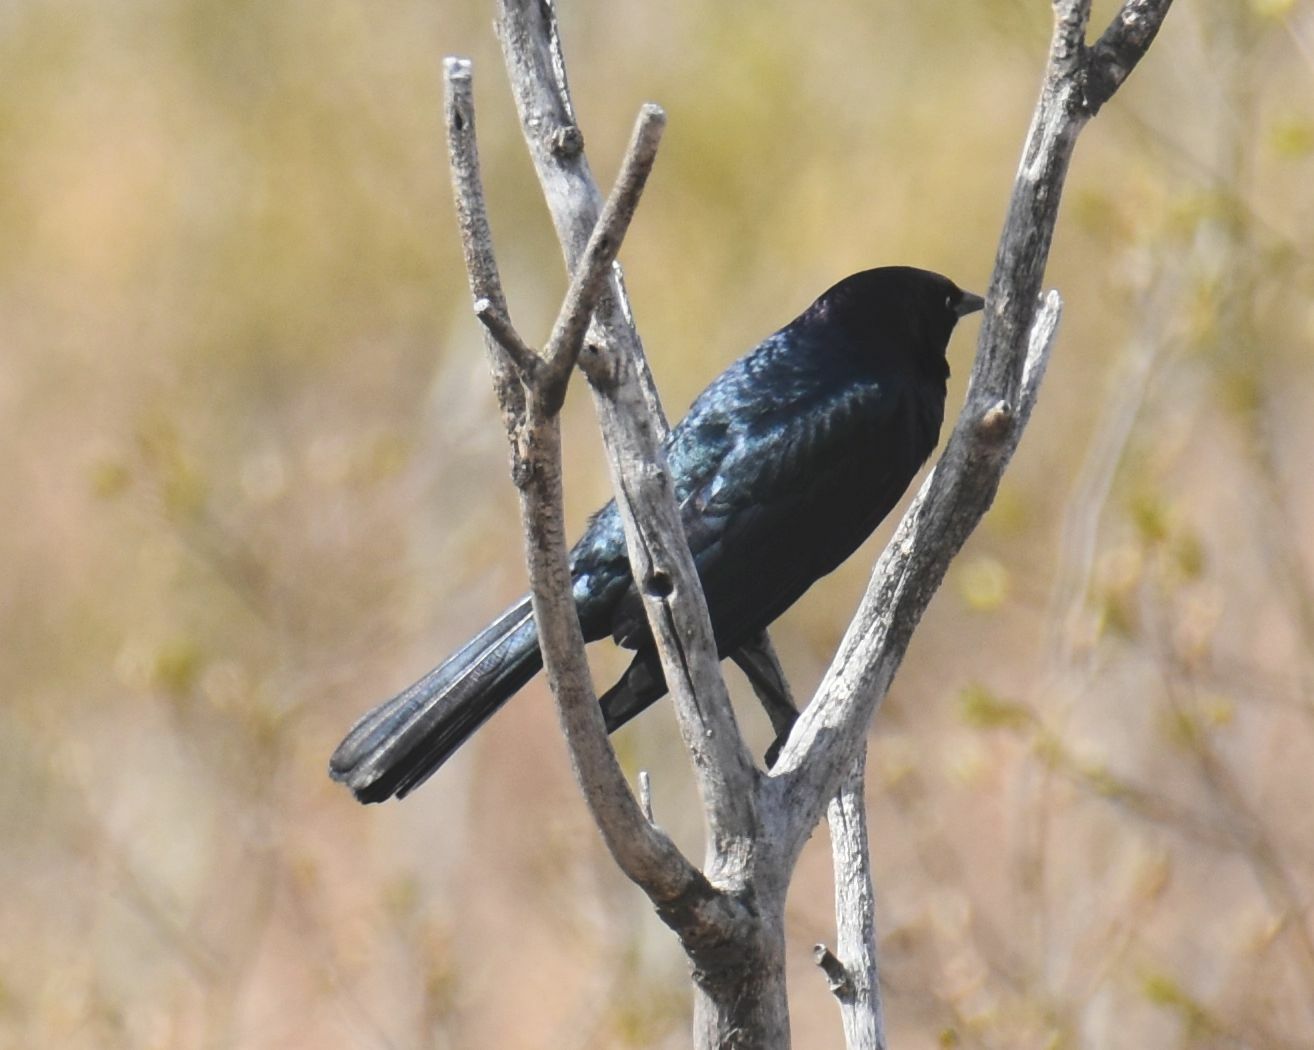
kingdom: Animalia
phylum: Chordata
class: Aves
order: Passeriformes
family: Icteridae
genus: Euphagus
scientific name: Euphagus cyanocephalus
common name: Brewer's blackbird
